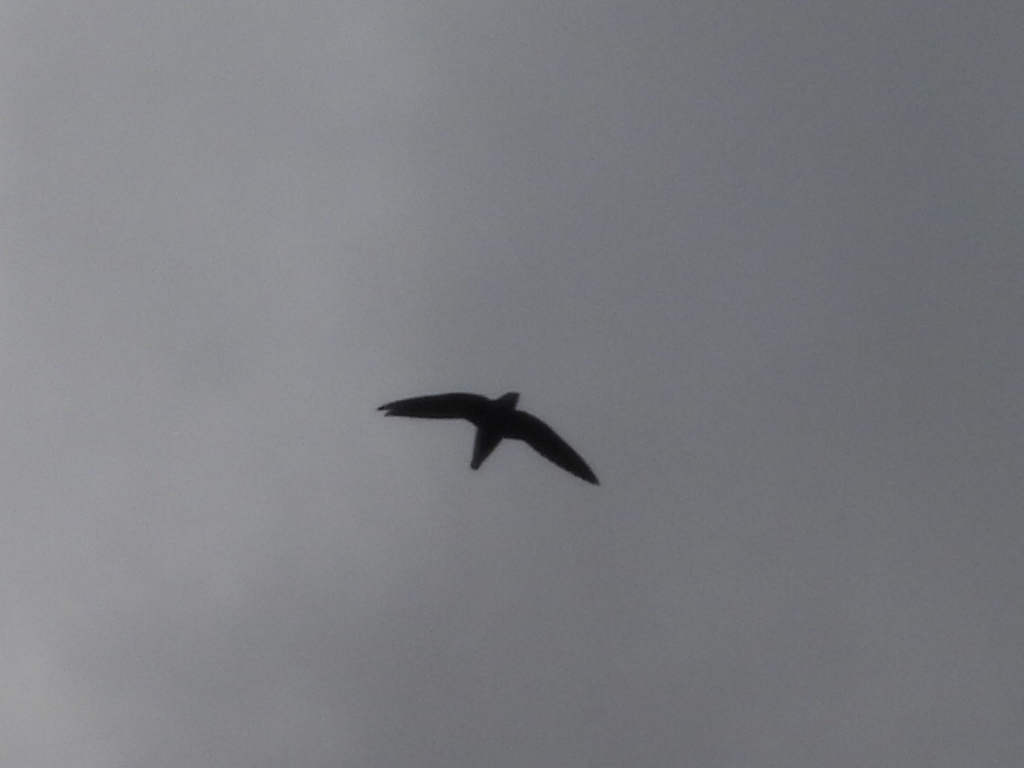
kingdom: Animalia
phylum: Chordata
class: Aves
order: Apodiformes
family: Apodidae
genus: Hirundapus
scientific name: Hirundapus caudacutus
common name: White-throated needletail
